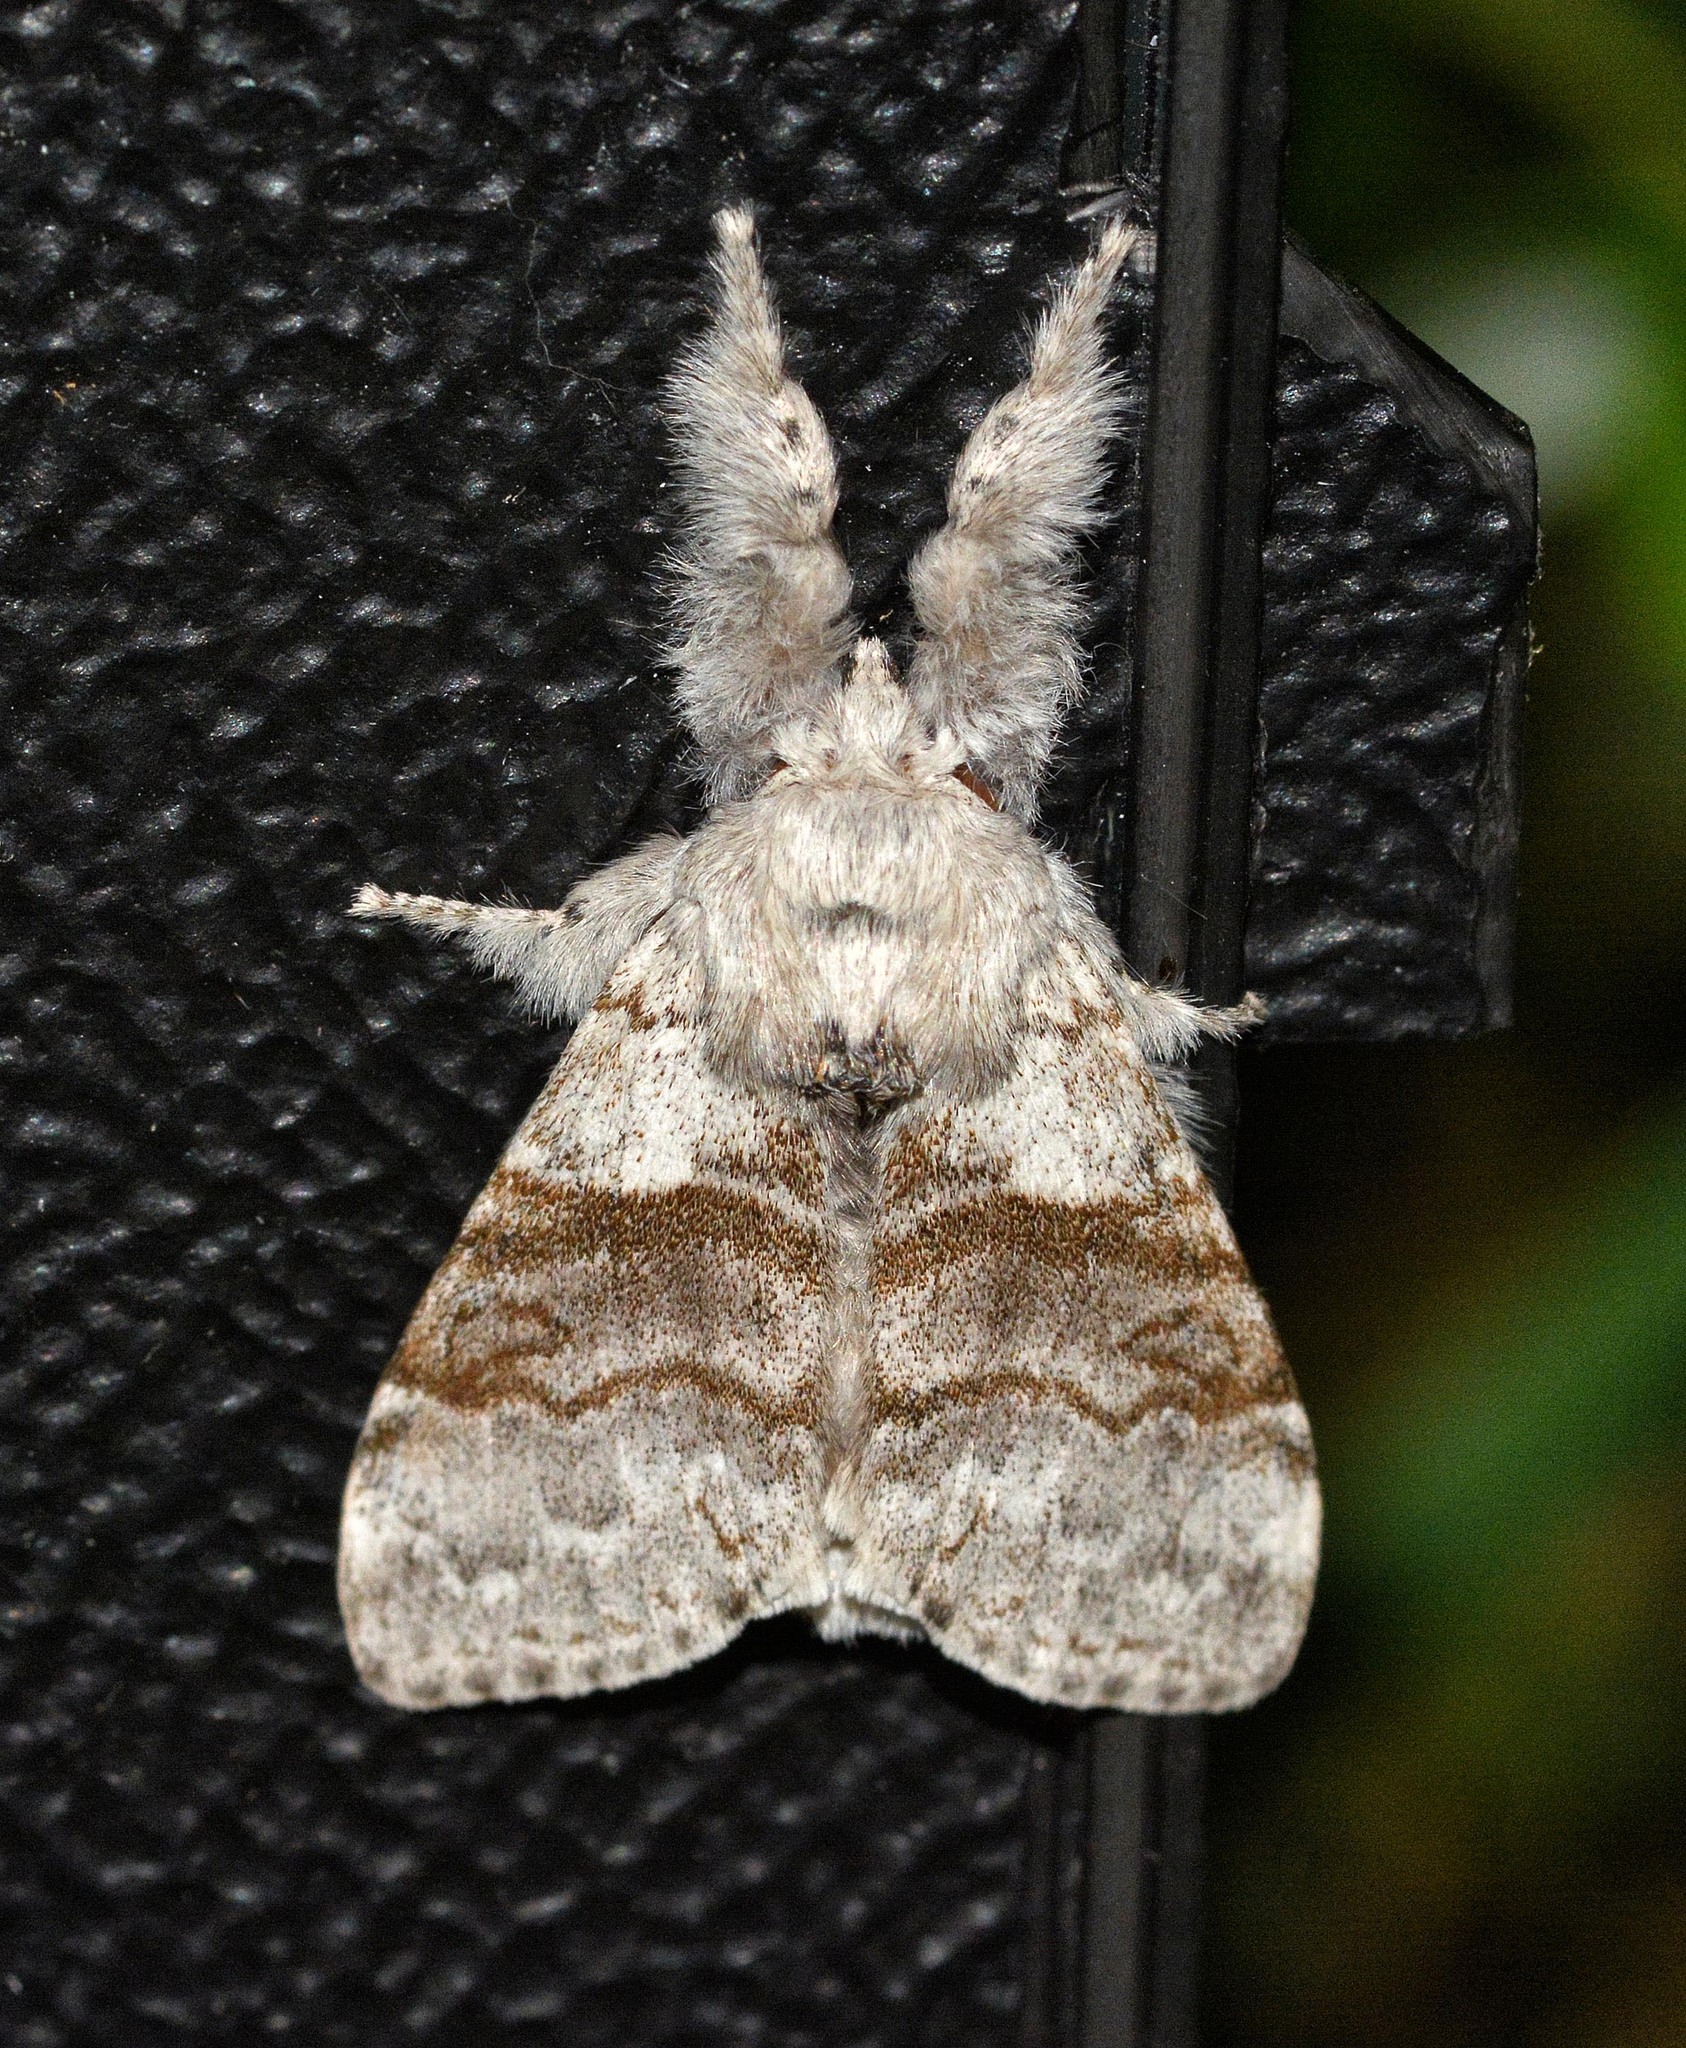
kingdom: Animalia
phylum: Arthropoda
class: Insecta
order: Lepidoptera
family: Erebidae
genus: Calliteara
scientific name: Calliteara pudibunda
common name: Pale tussock
